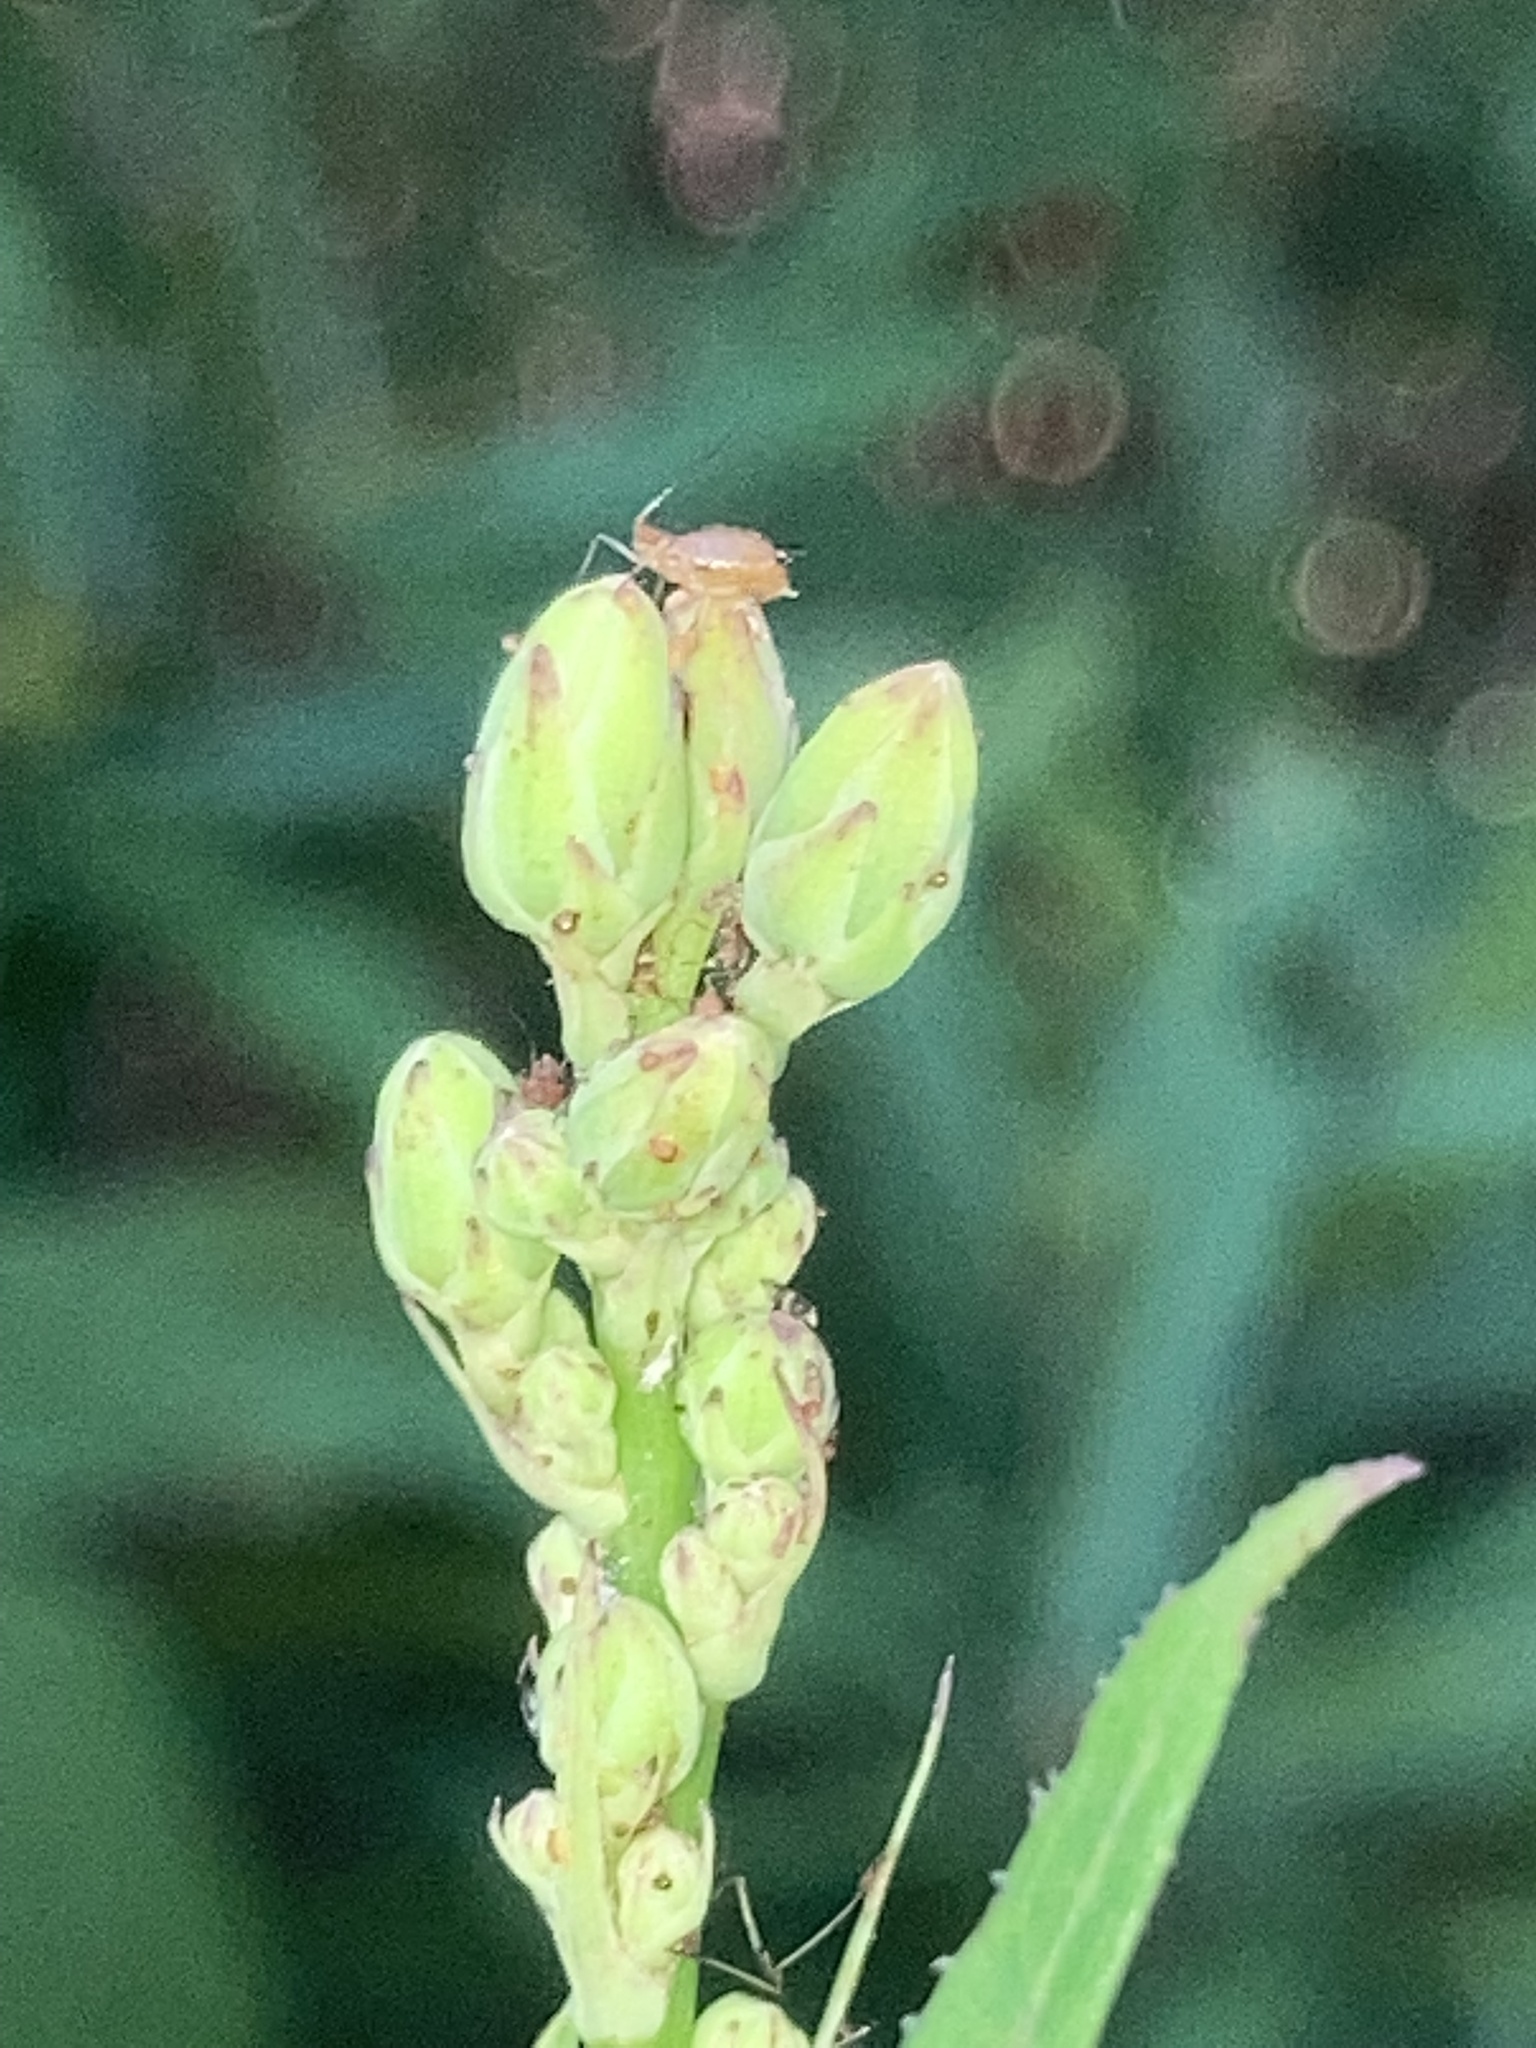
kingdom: Plantae
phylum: Tracheophyta
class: Magnoliopsida
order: Asterales
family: Asteraceae
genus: Lactuca
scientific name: Lactuca serriola
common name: Prickly lettuce
